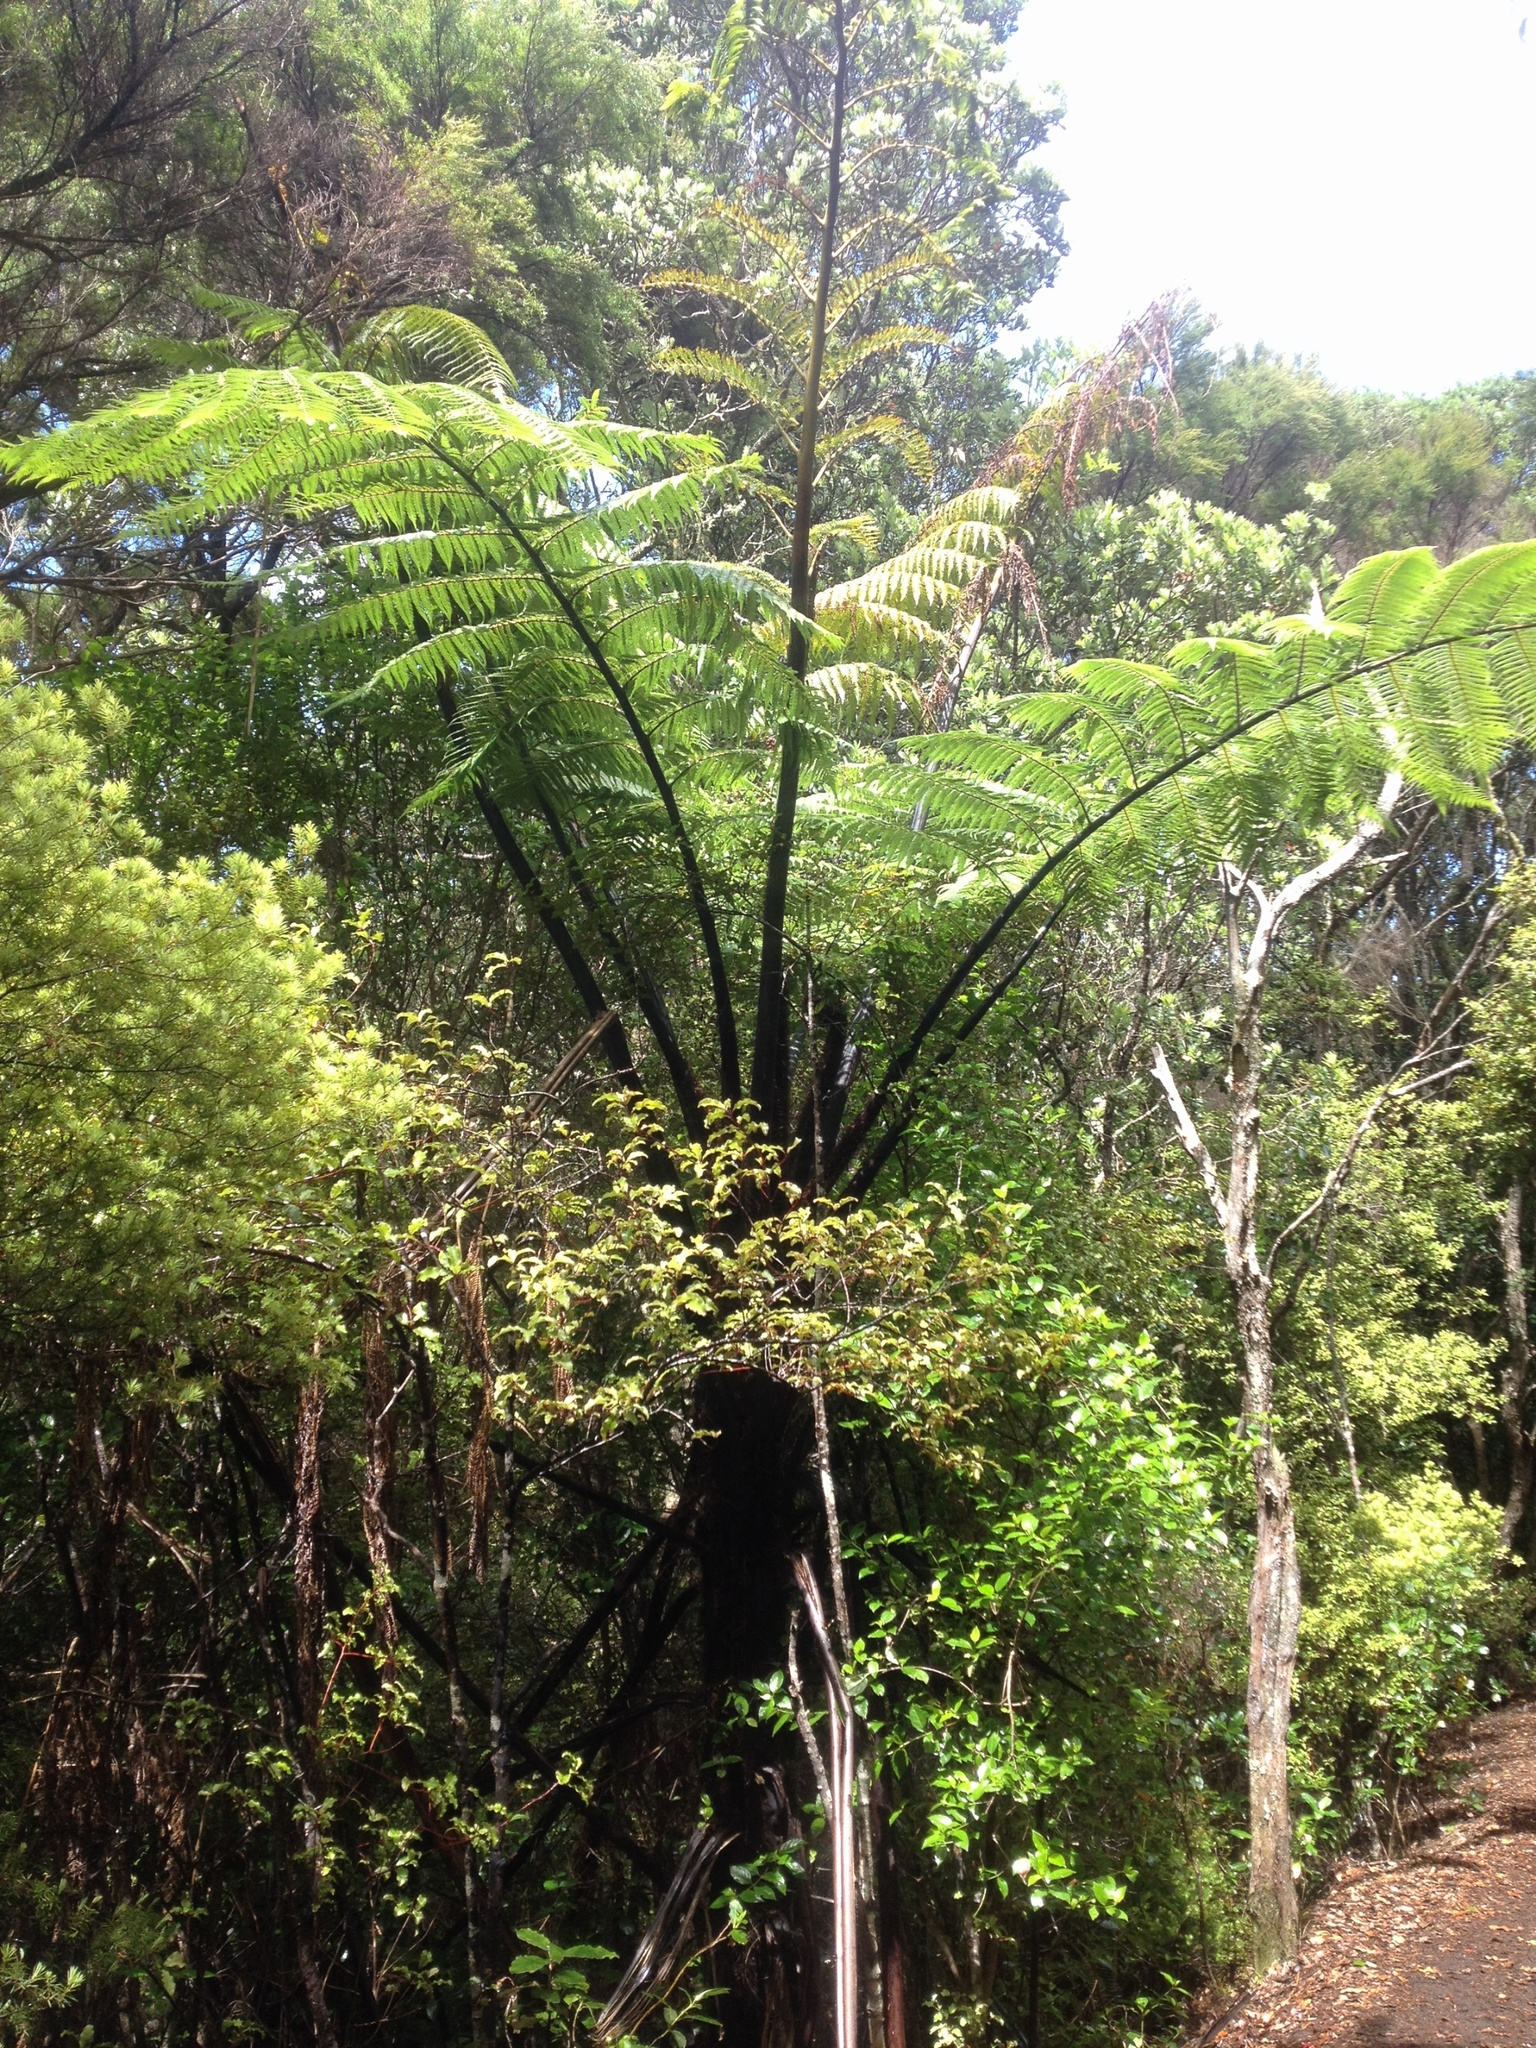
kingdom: Plantae
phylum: Tracheophyta
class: Polypodiopsida
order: Cyatheales
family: Cyatheaceae
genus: Sphaeropteris
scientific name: Sphaeropteris medullaris
